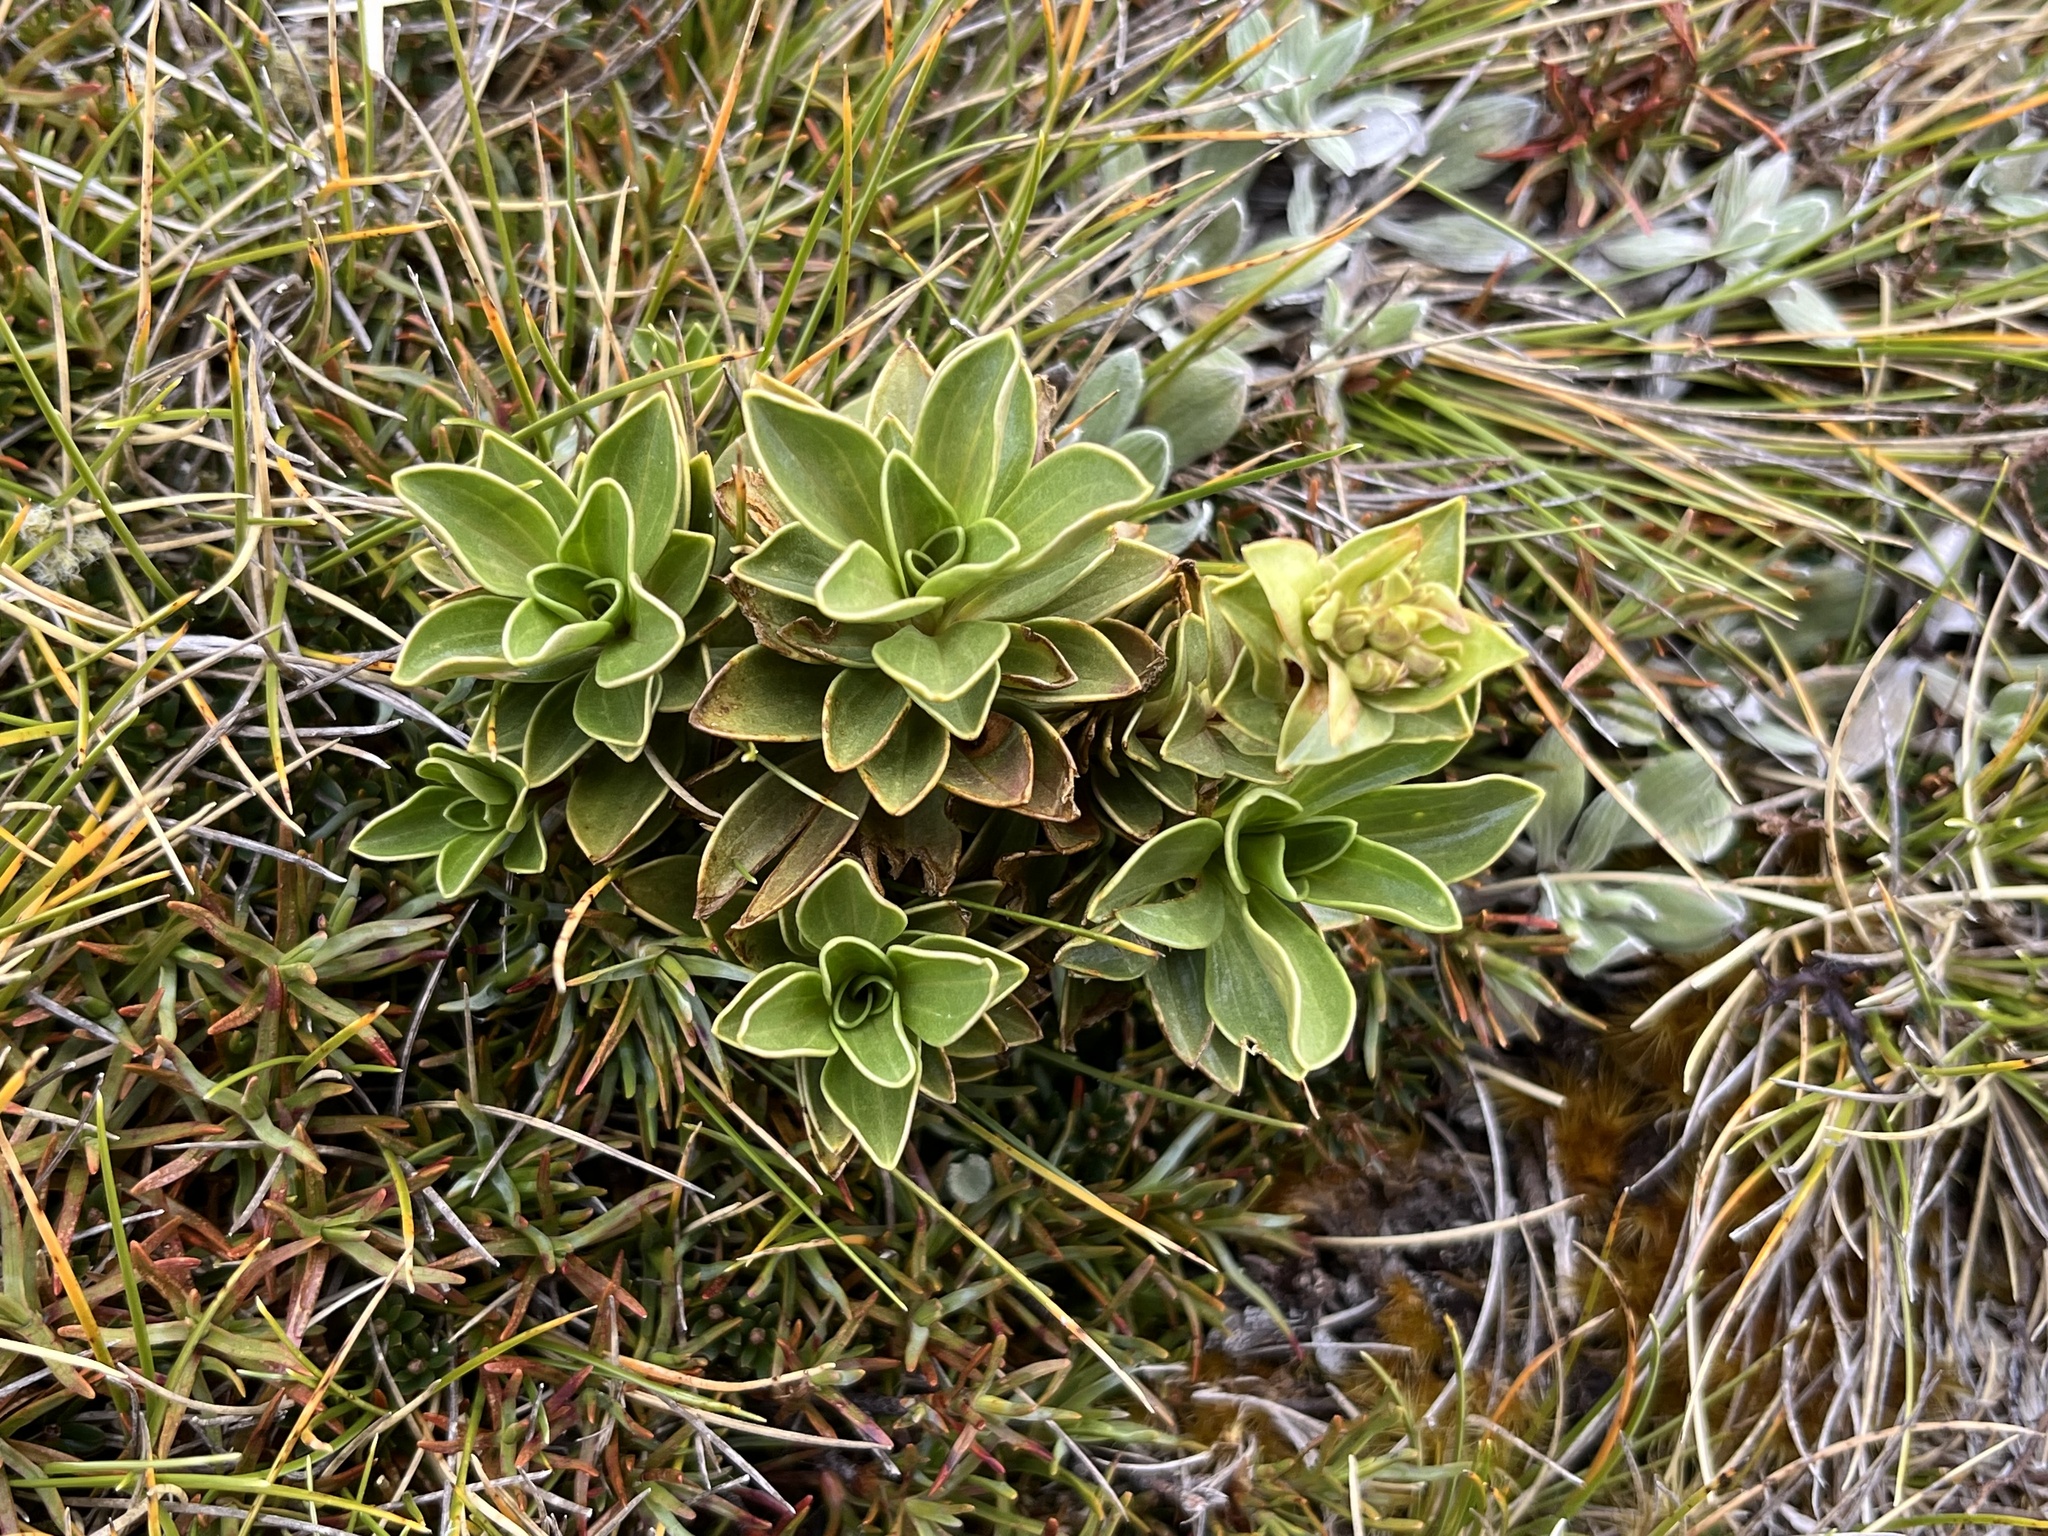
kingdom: Plantae
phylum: Tracheophyta
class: Magnoliopsida
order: Gentianales
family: Gentianaceae
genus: Gentianella
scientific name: Gentianella impressinervia
